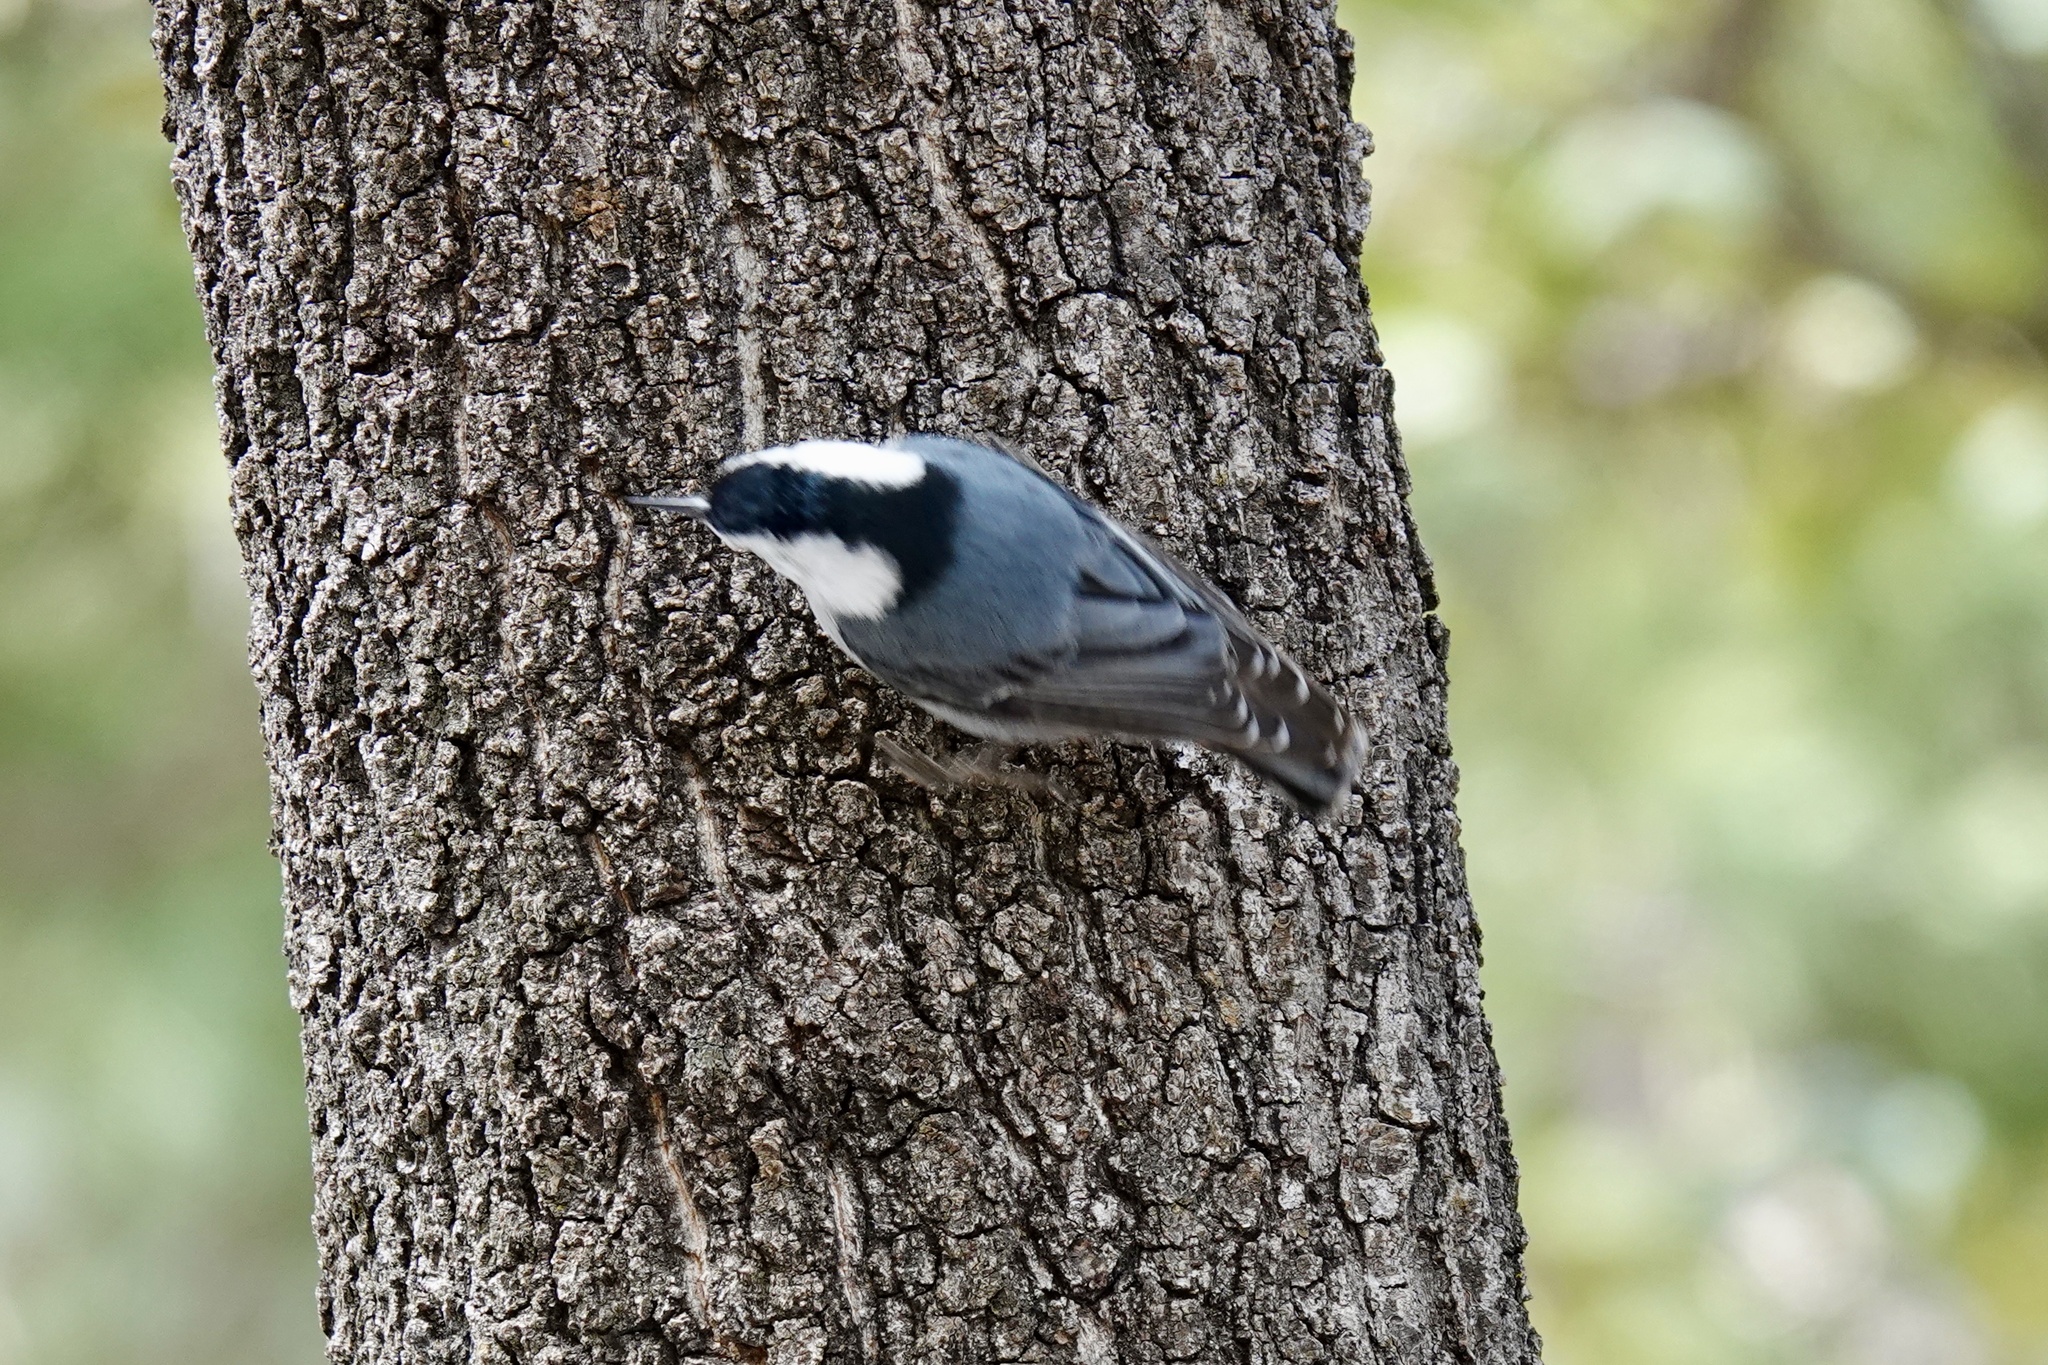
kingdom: Animalia
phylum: Chordata
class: Aves
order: Passeriformes
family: Sittidae
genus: Sitta
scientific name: Sitta carolinensis
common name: White-breasted nuthatch
